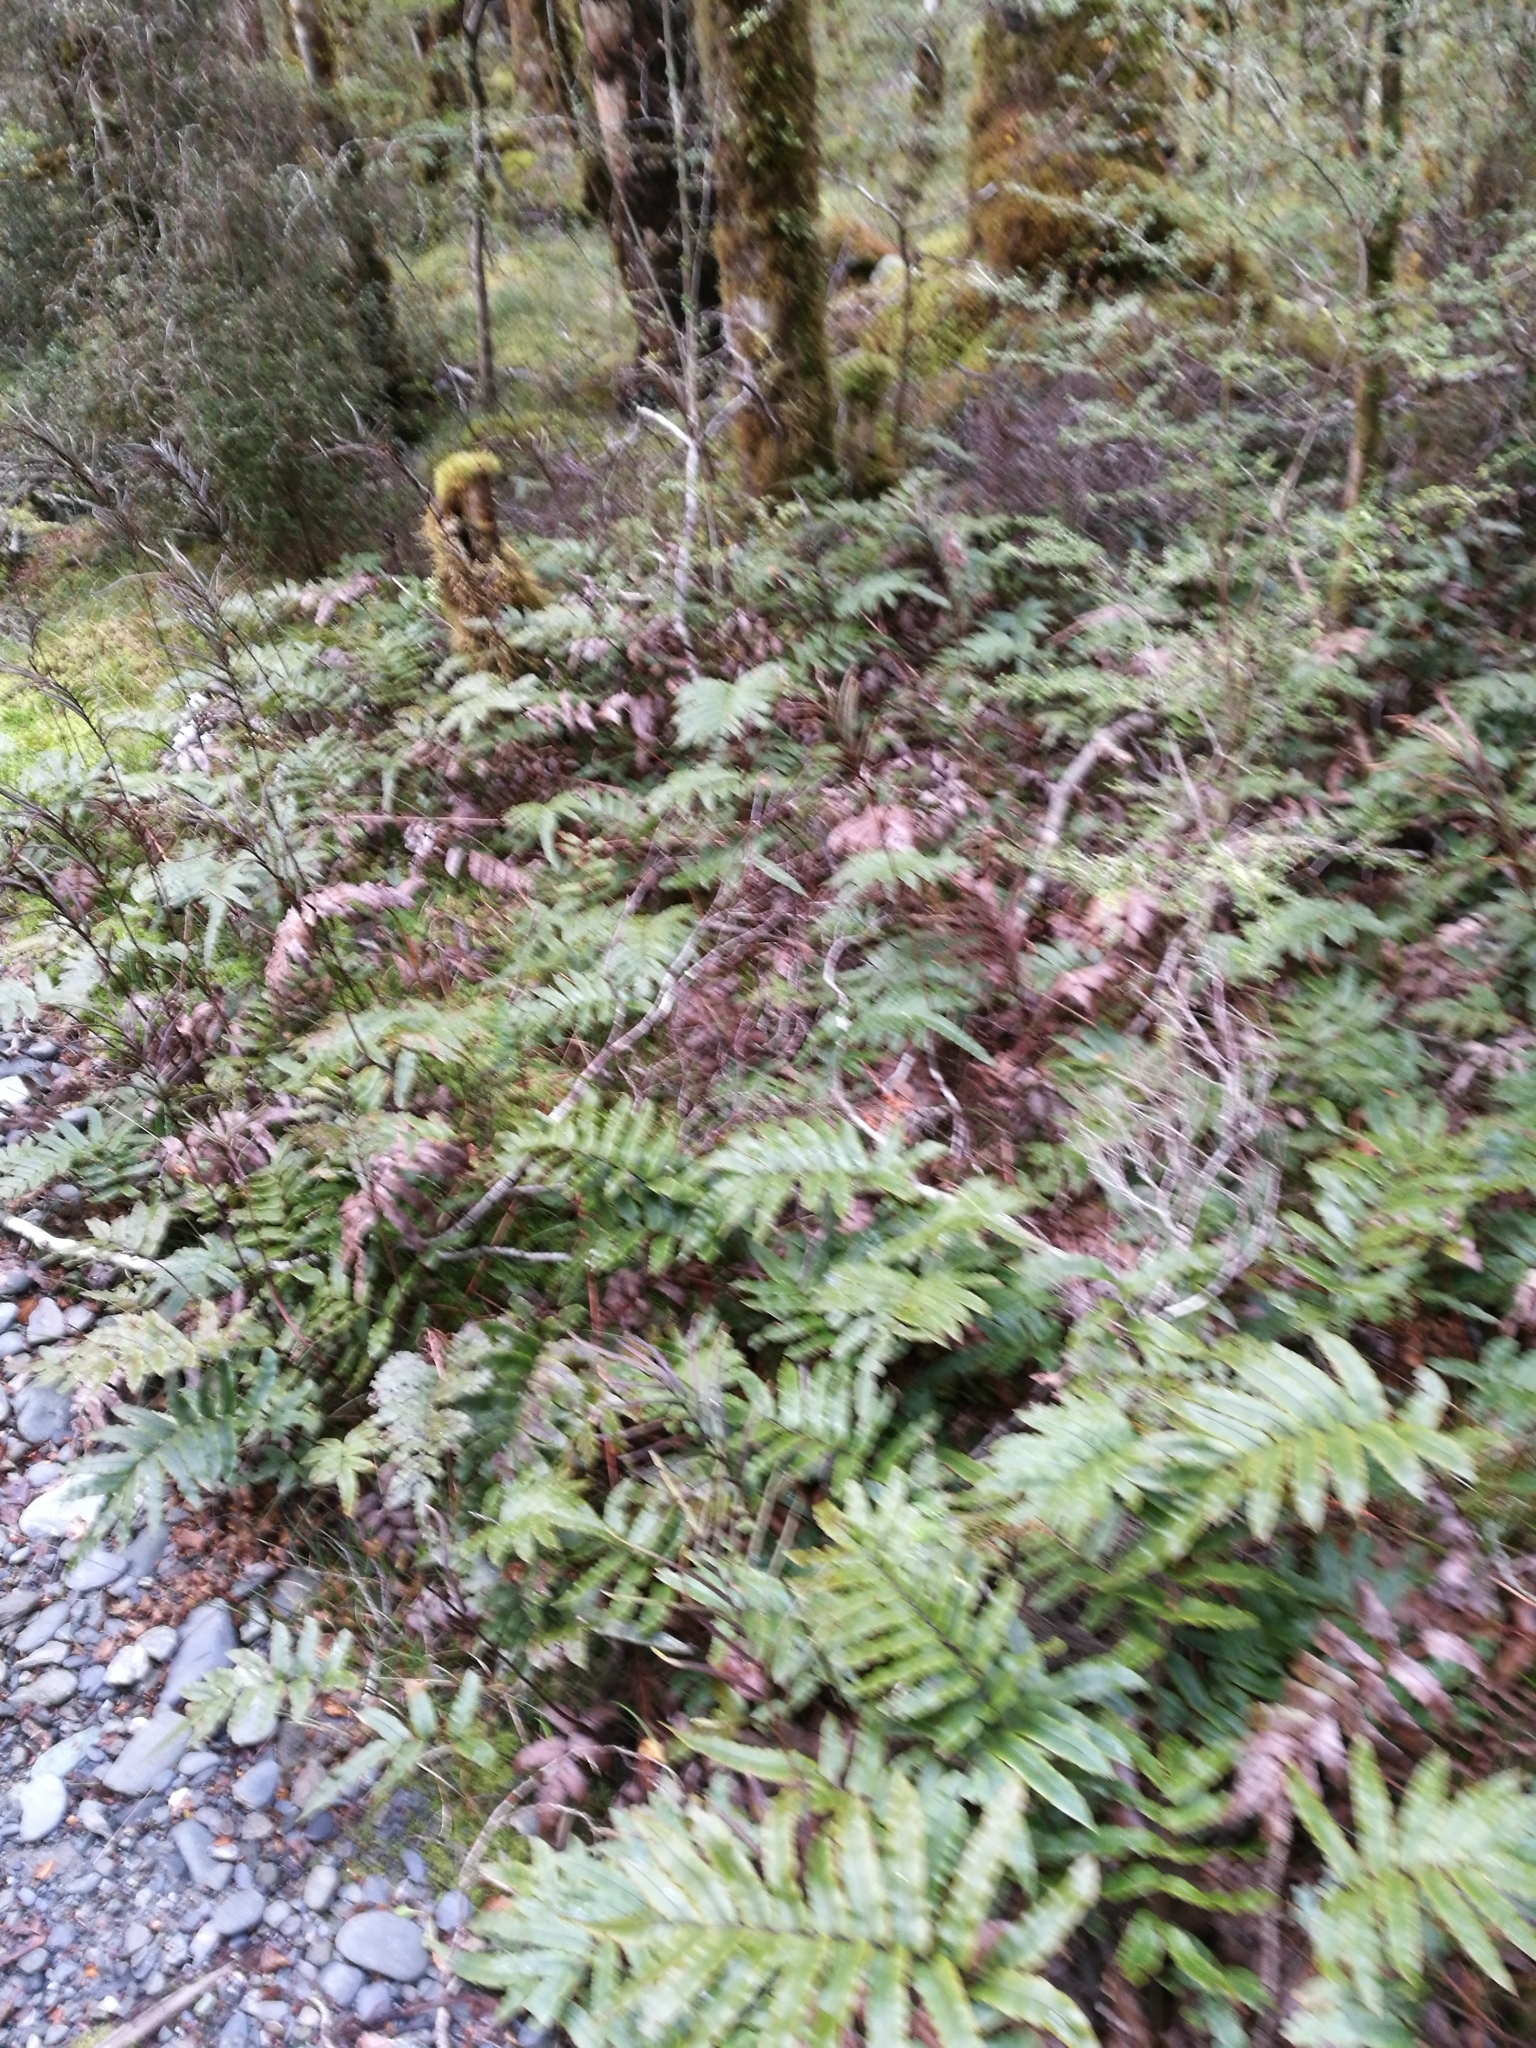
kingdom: Plantae
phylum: Tracheophyta
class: Polypodiopsida
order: Polypodiales
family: Blechnaceae
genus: Parablechnum
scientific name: Parablechnum procerum
